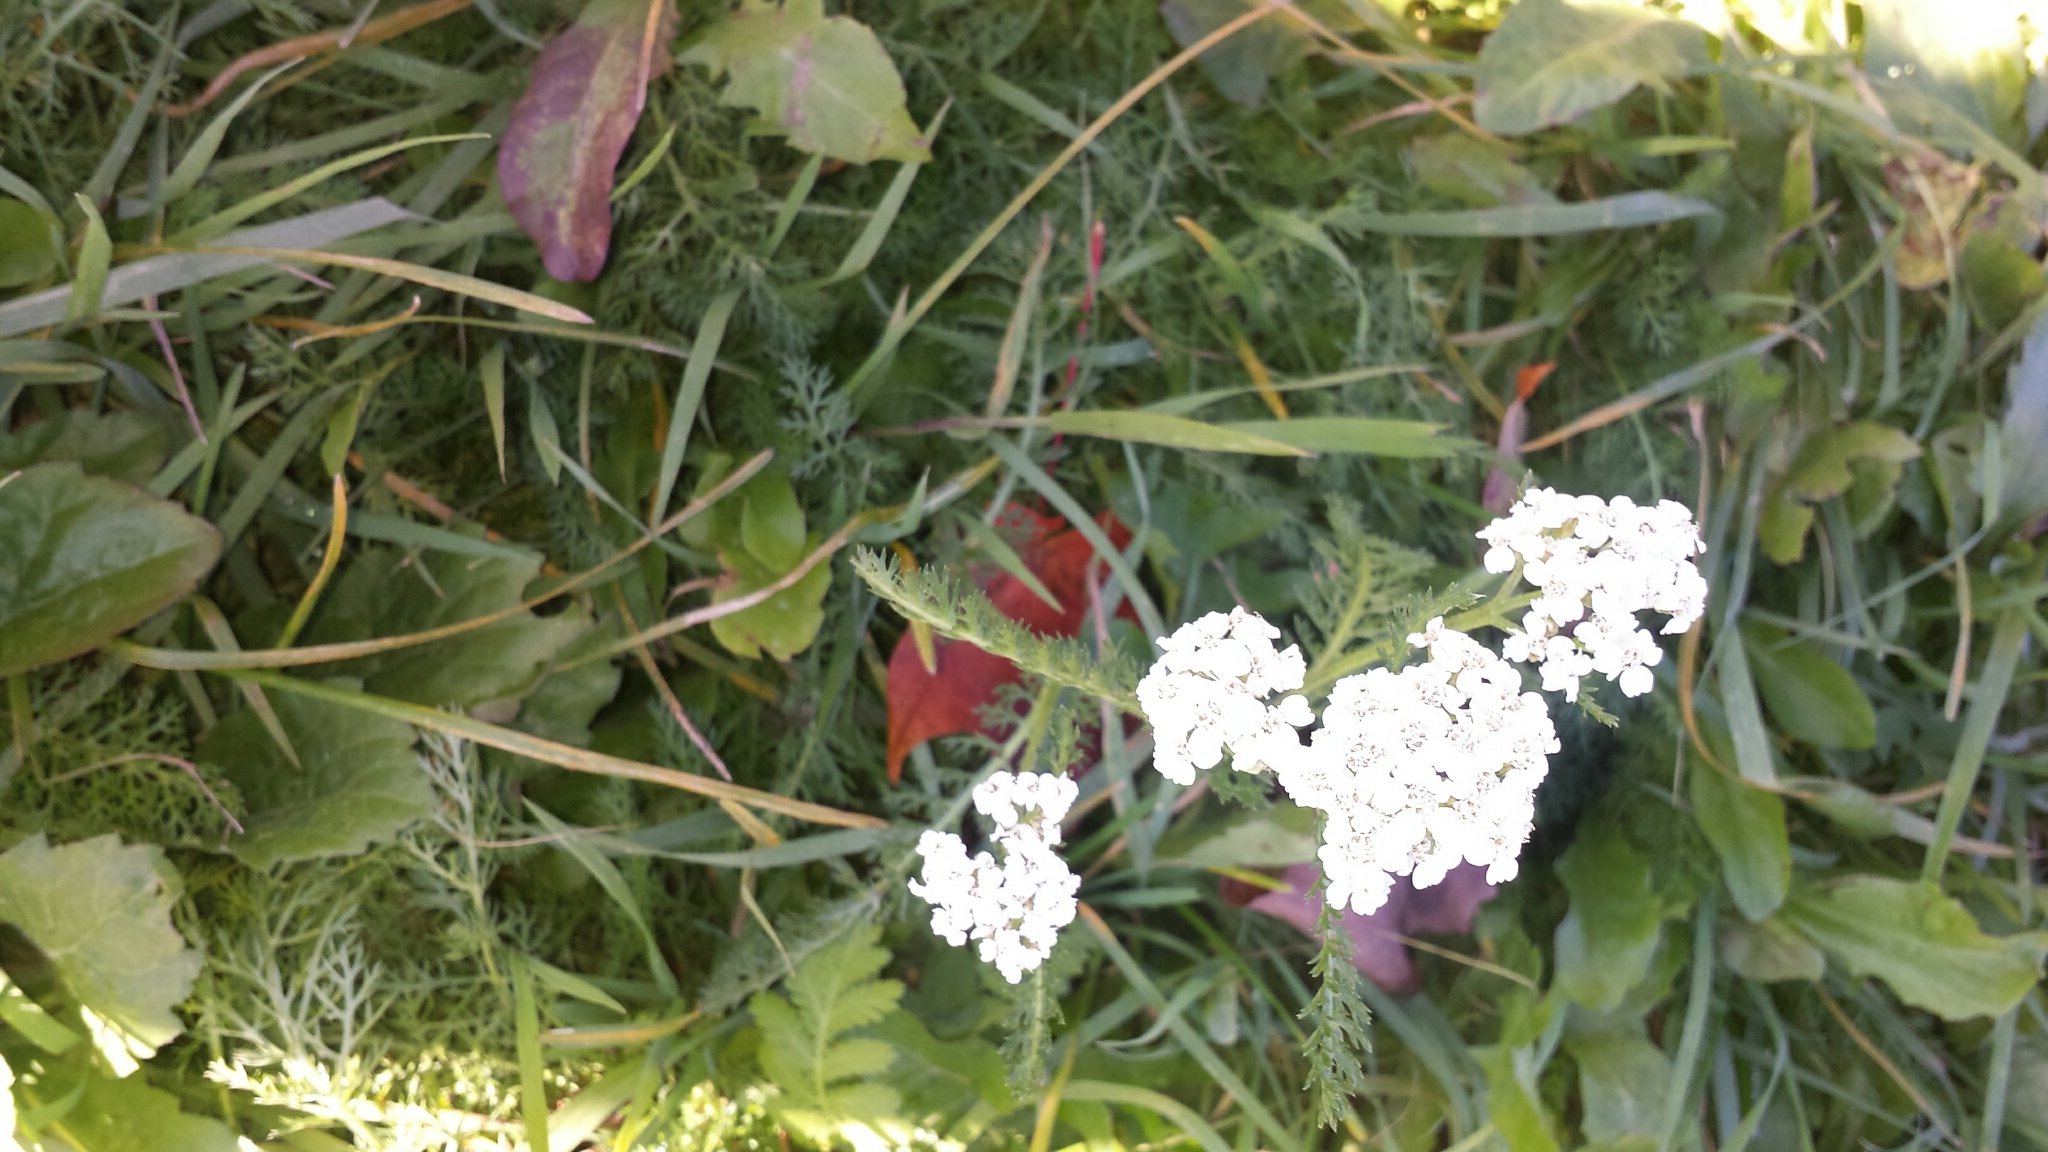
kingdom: Plantae
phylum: Tracheophyta
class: Magnoliopsida
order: Asterales
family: Asteraceae
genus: Achillea
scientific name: Achillea millefolium
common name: Yarrow
